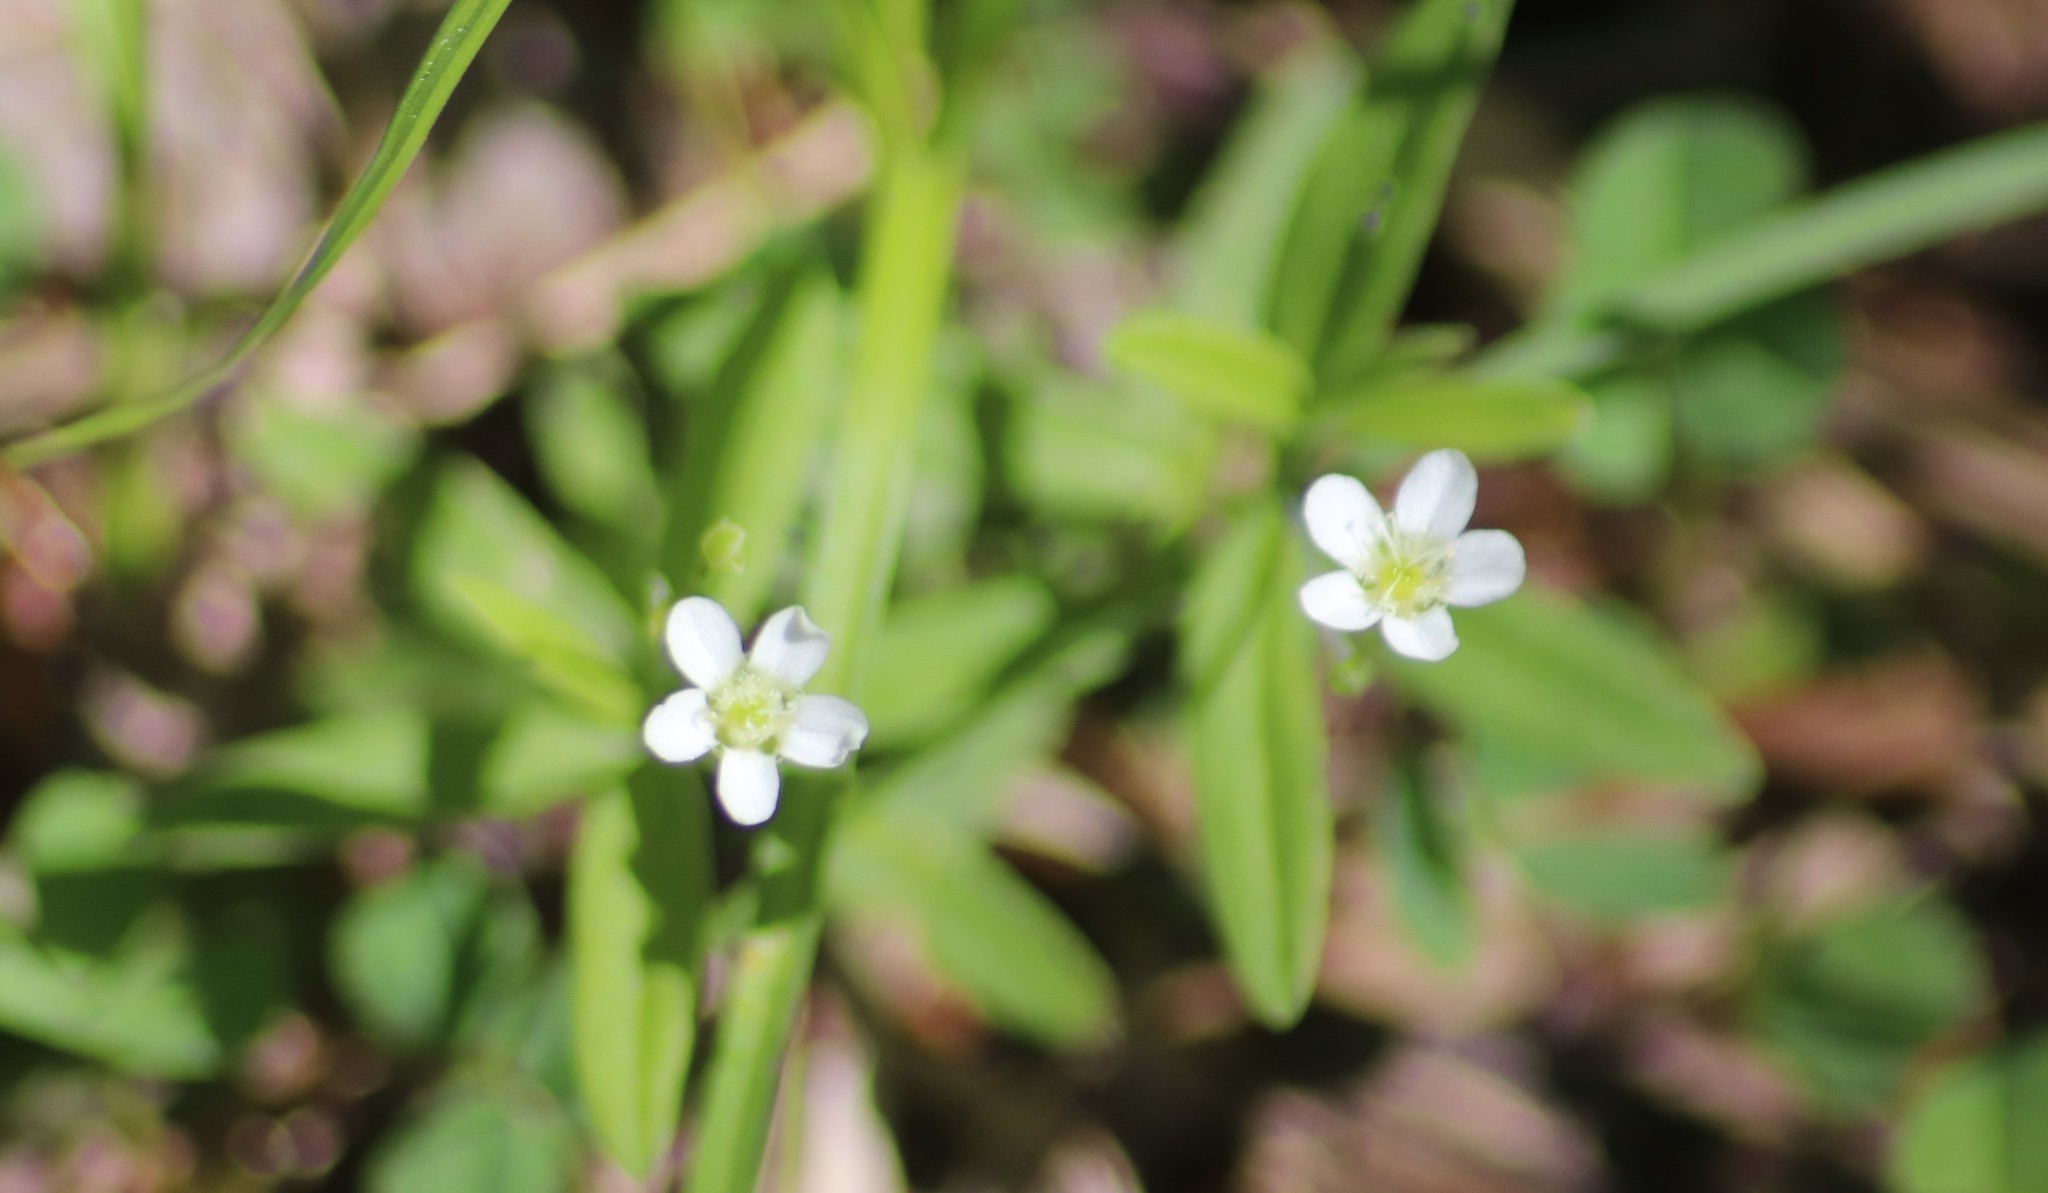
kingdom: Plantae
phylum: Tracheophyta
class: Magnoliopsida
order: Caryophyllales
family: Caryophyllaceae
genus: Moehringia
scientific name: Moehringia lateriflora
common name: Blunt-leaved sandwort
